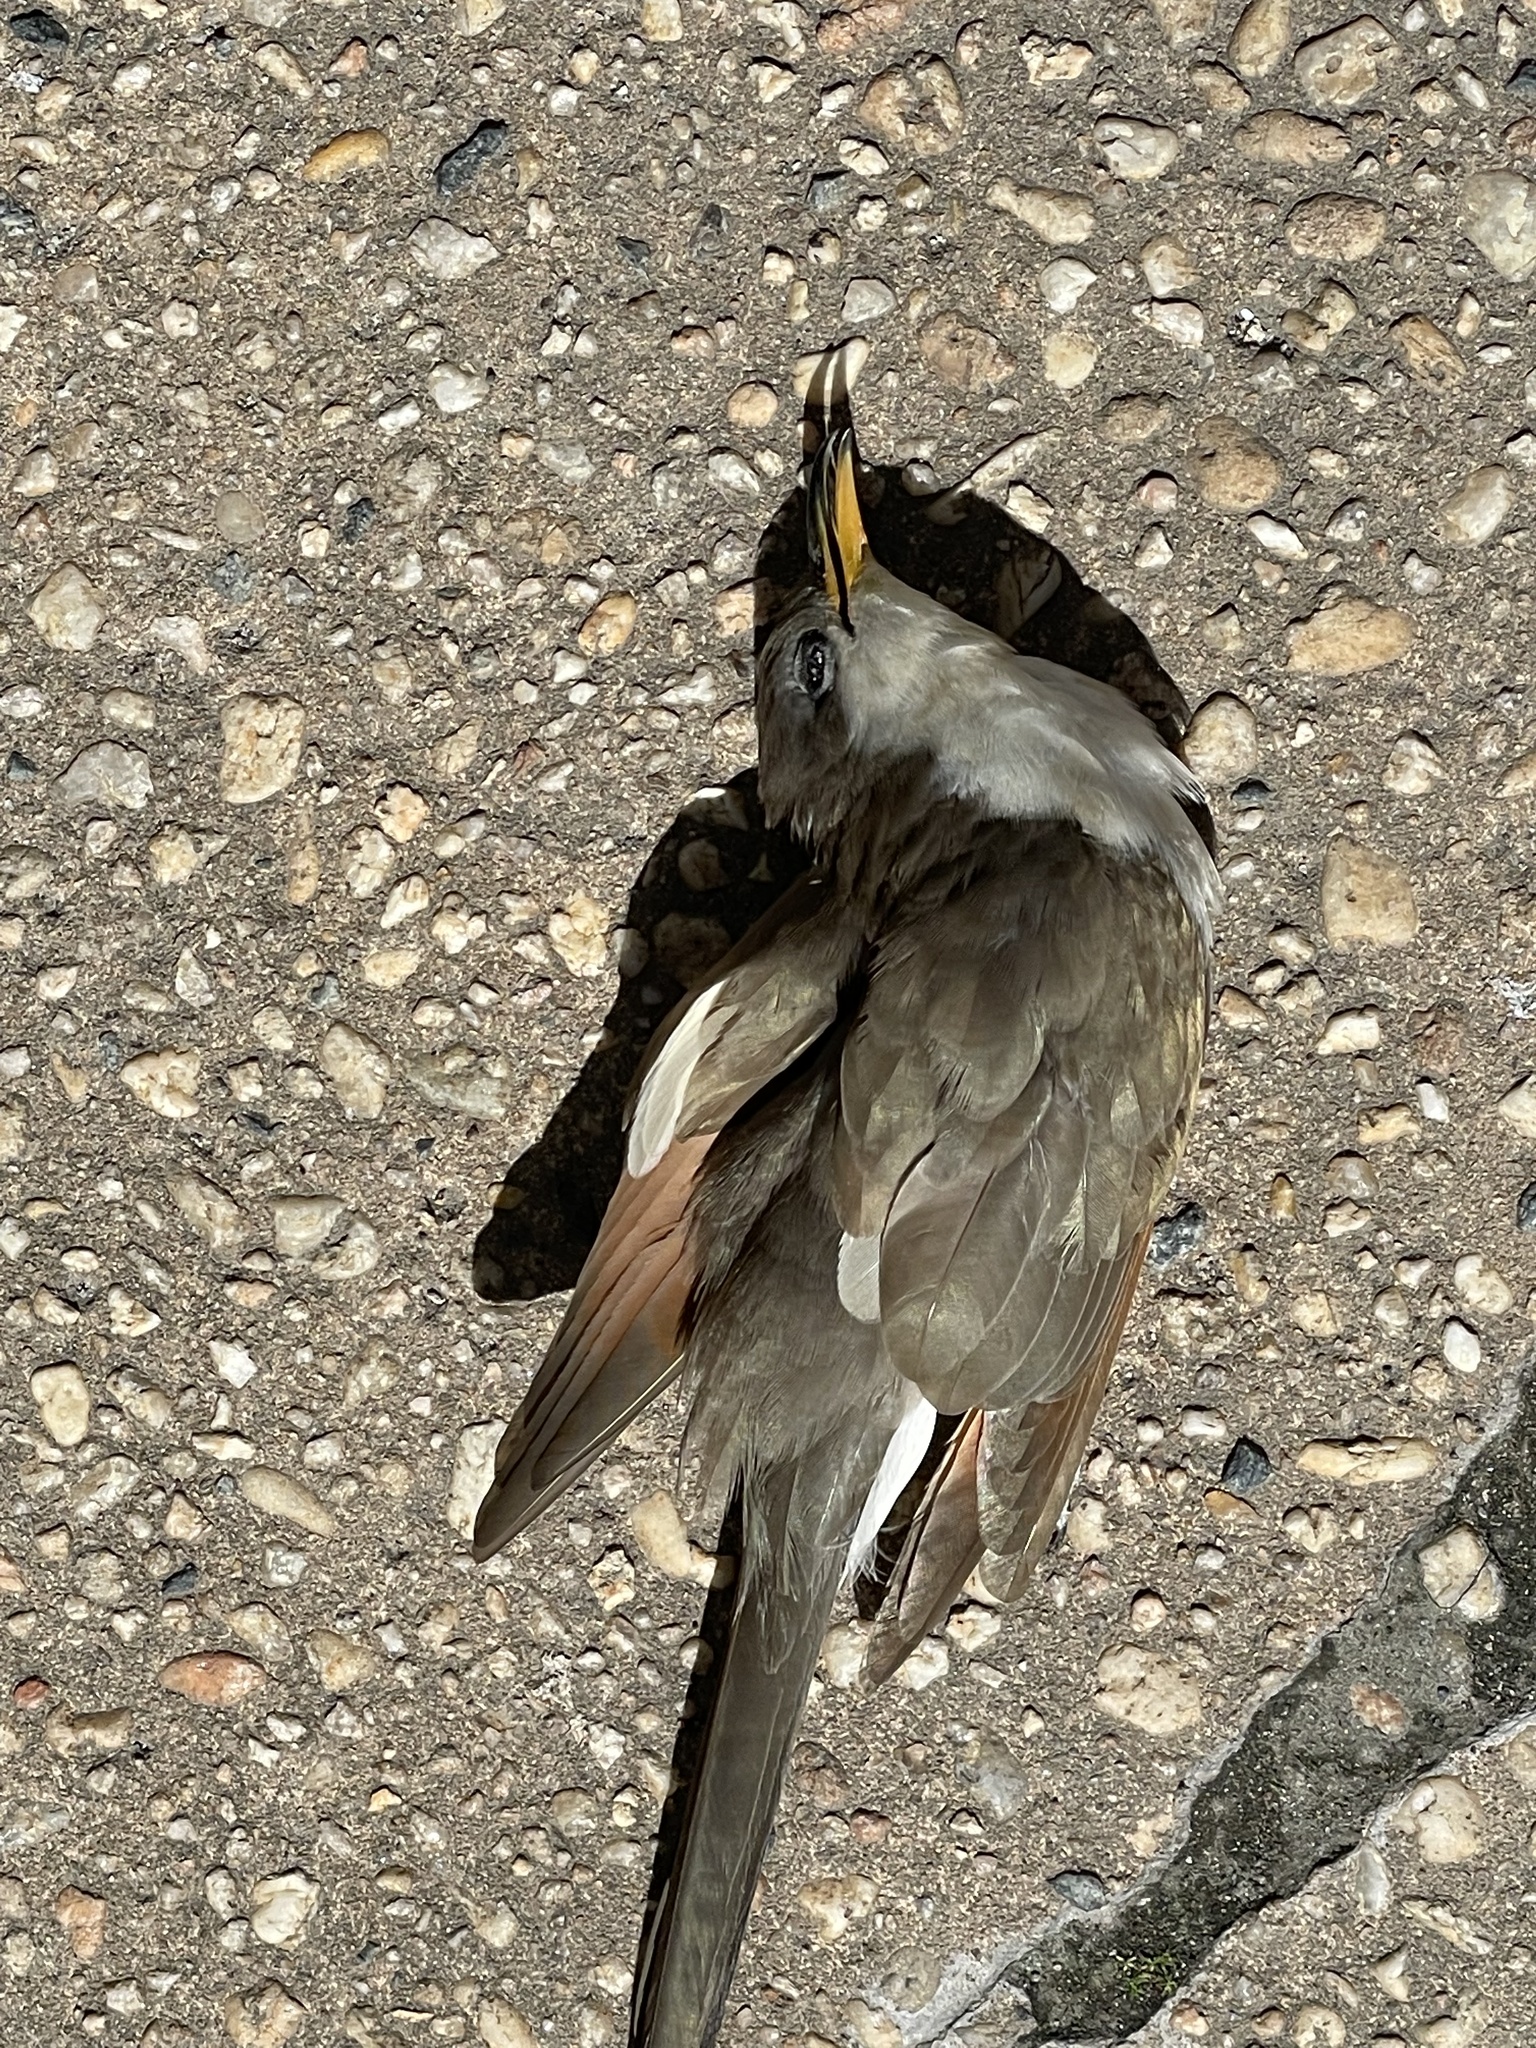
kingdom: Animalia
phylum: Chordata
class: Aves
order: Cuculiformes
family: Cuculidae
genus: Coccyzus
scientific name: Coccyzus americanus
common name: Yellow-billed cuckoo
